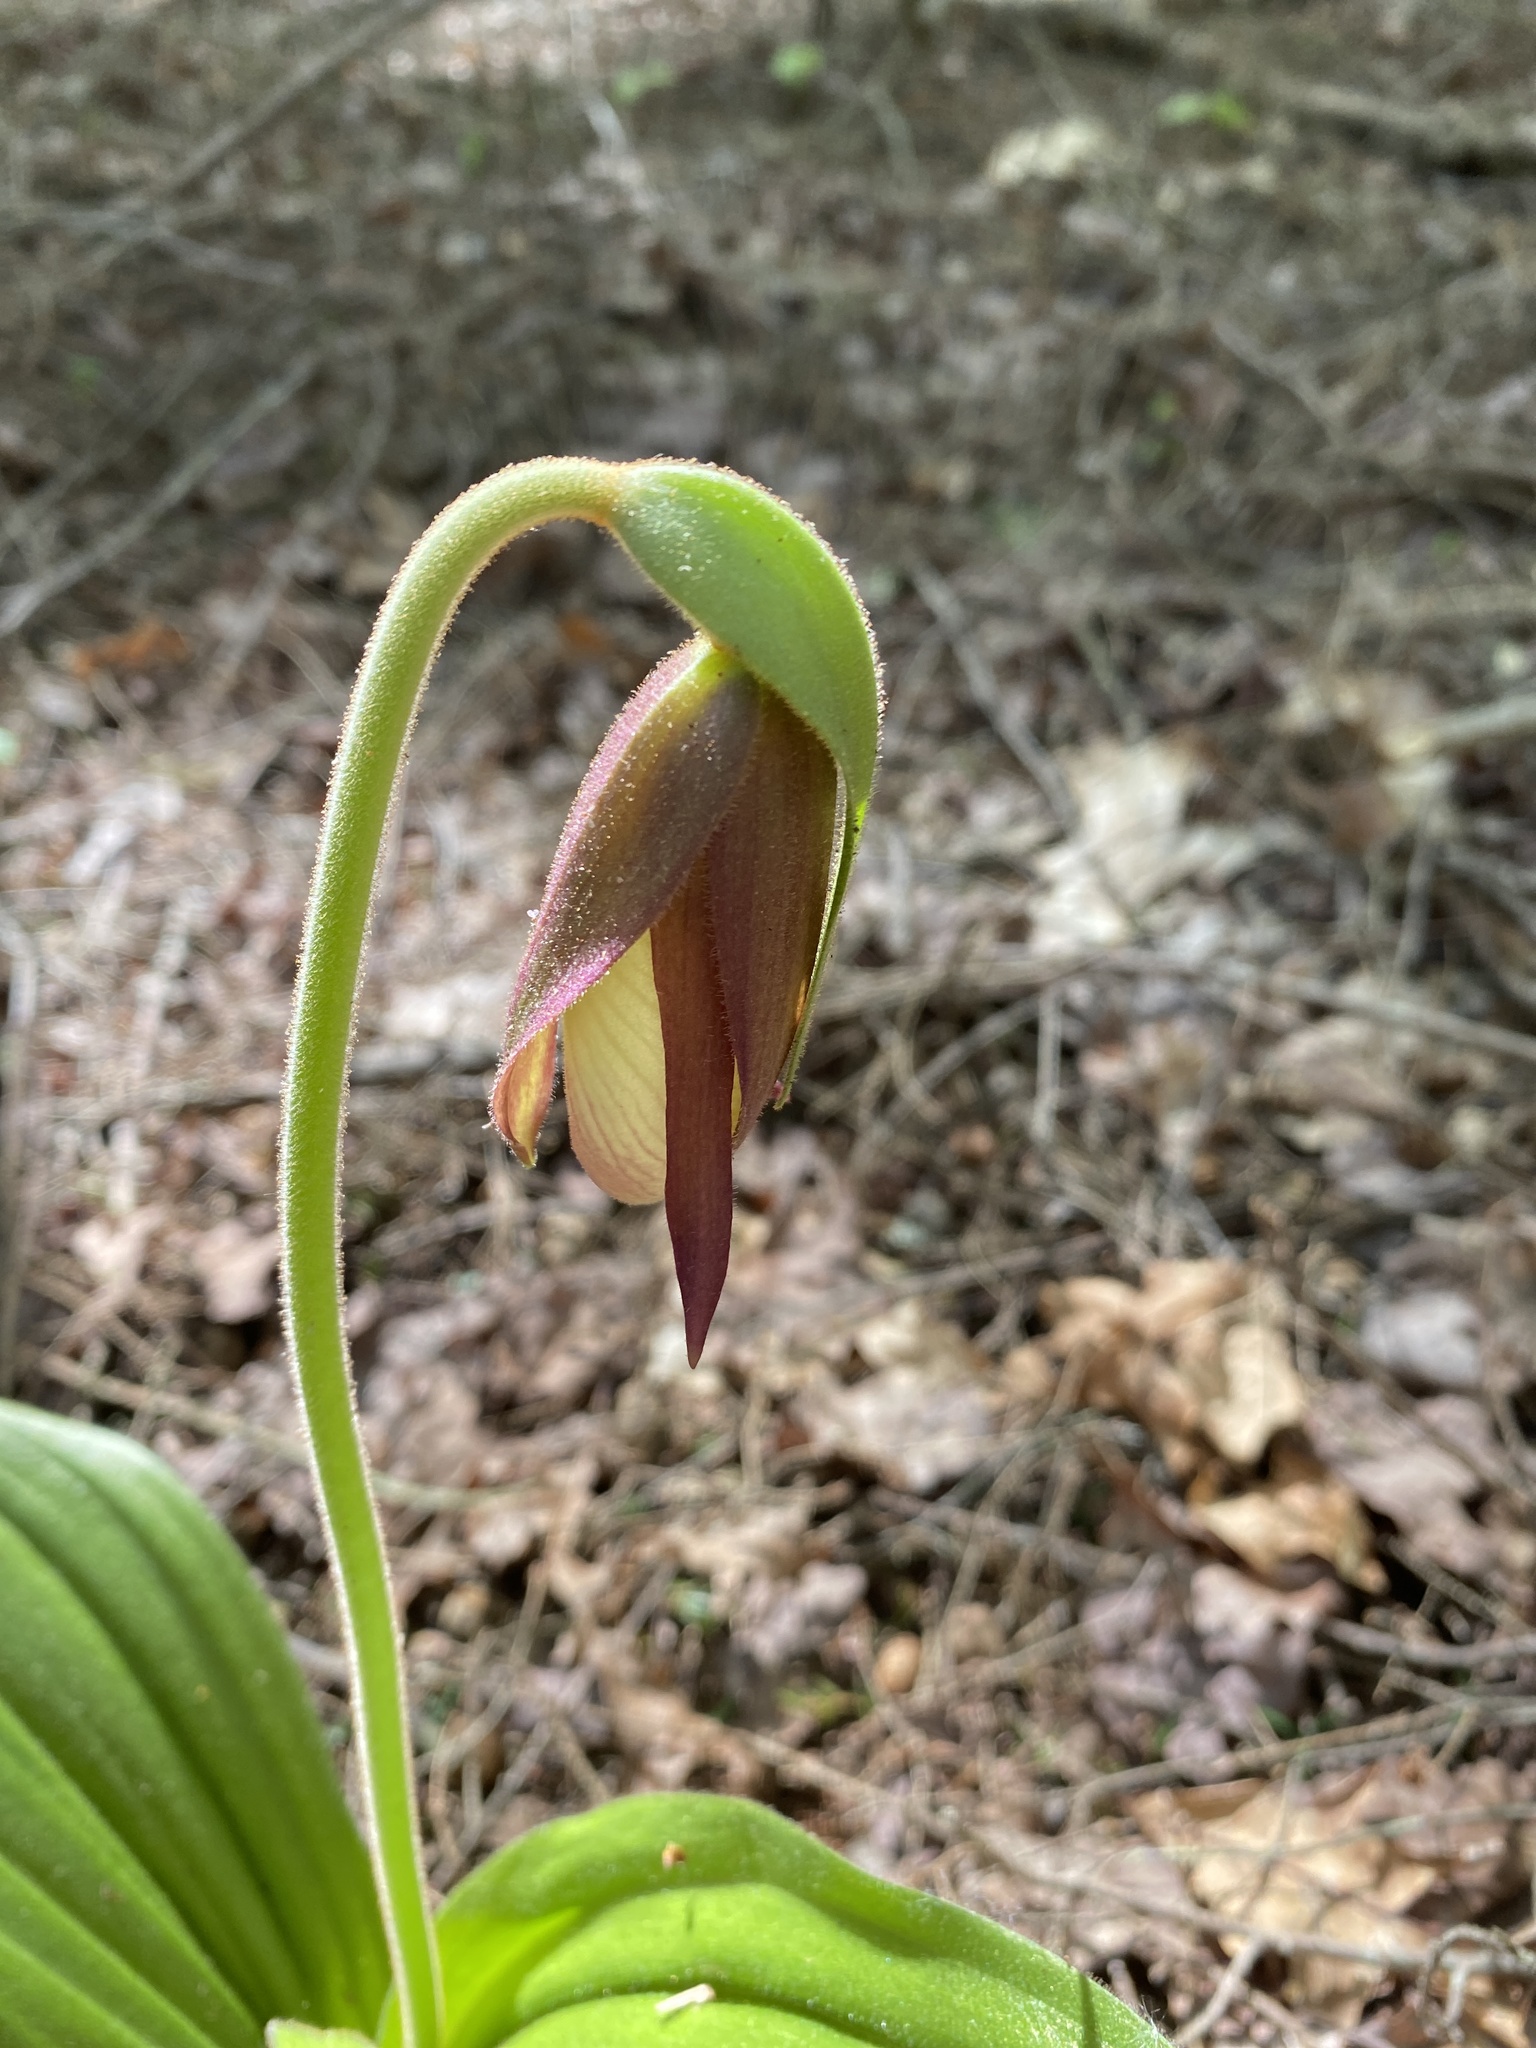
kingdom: Plantae
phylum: Tracheophyta
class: Liliopsida
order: Asparagales
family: Orchidaceae
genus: Cypripedium
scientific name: Cypripedium acaule
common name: Pink lady's-slipper
